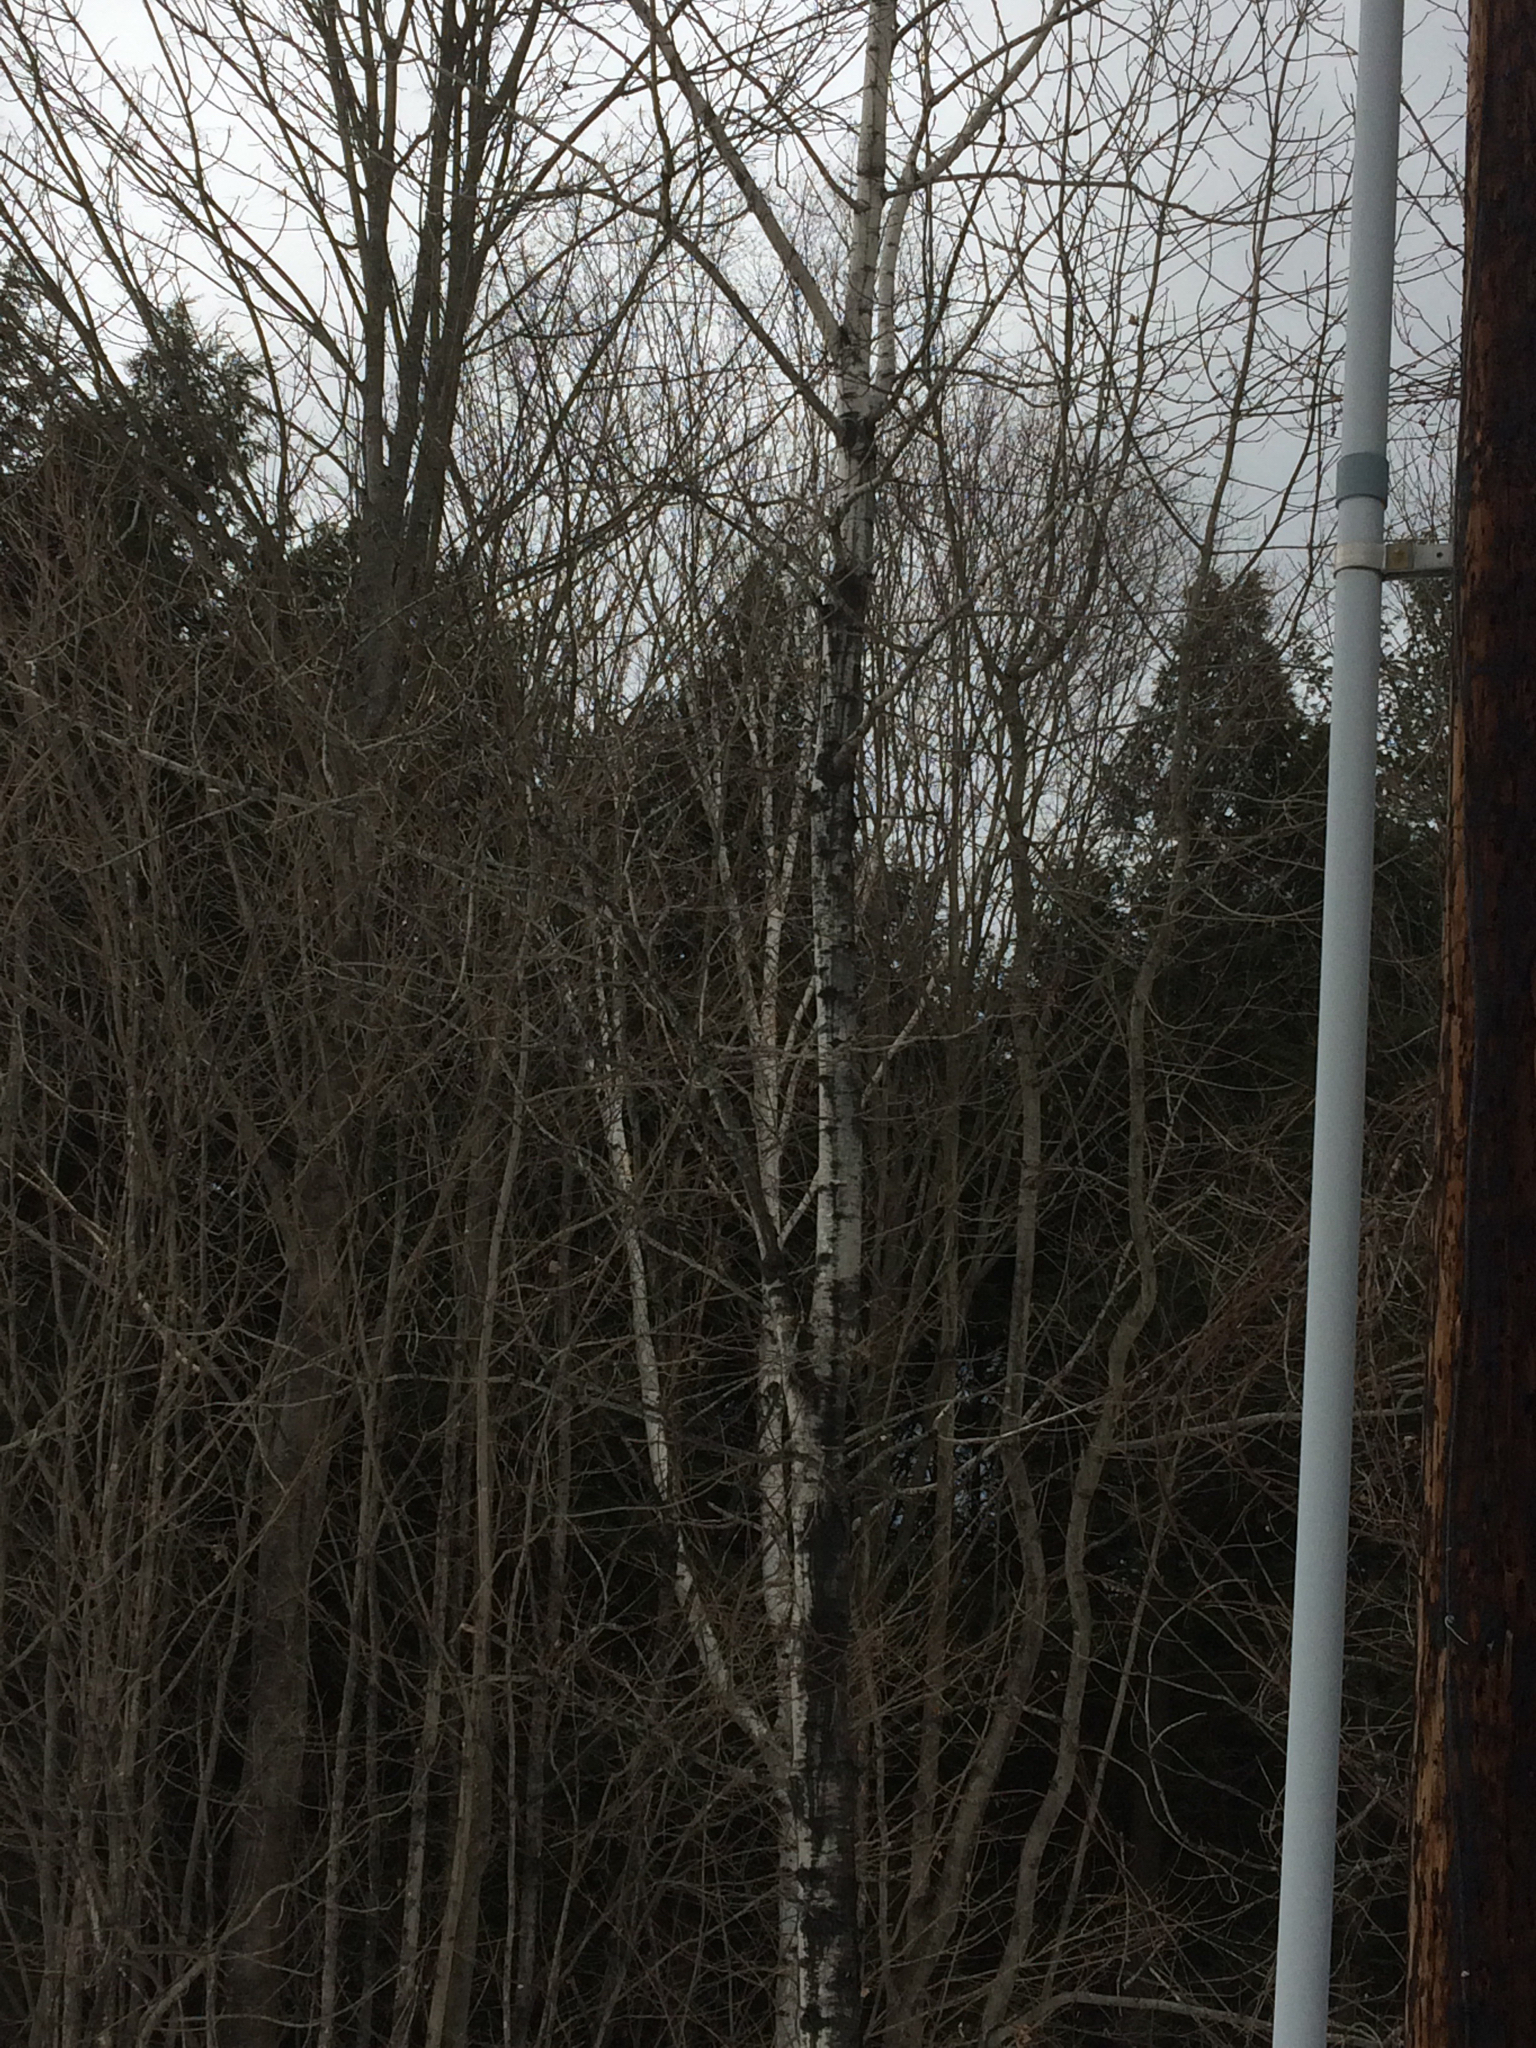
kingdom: Plantae
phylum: Tracheophyta
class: Magnoliopsida
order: Malpighiales
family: Salicaceae
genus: Populus
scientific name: Populus tremuloides
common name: Quaking aspen
